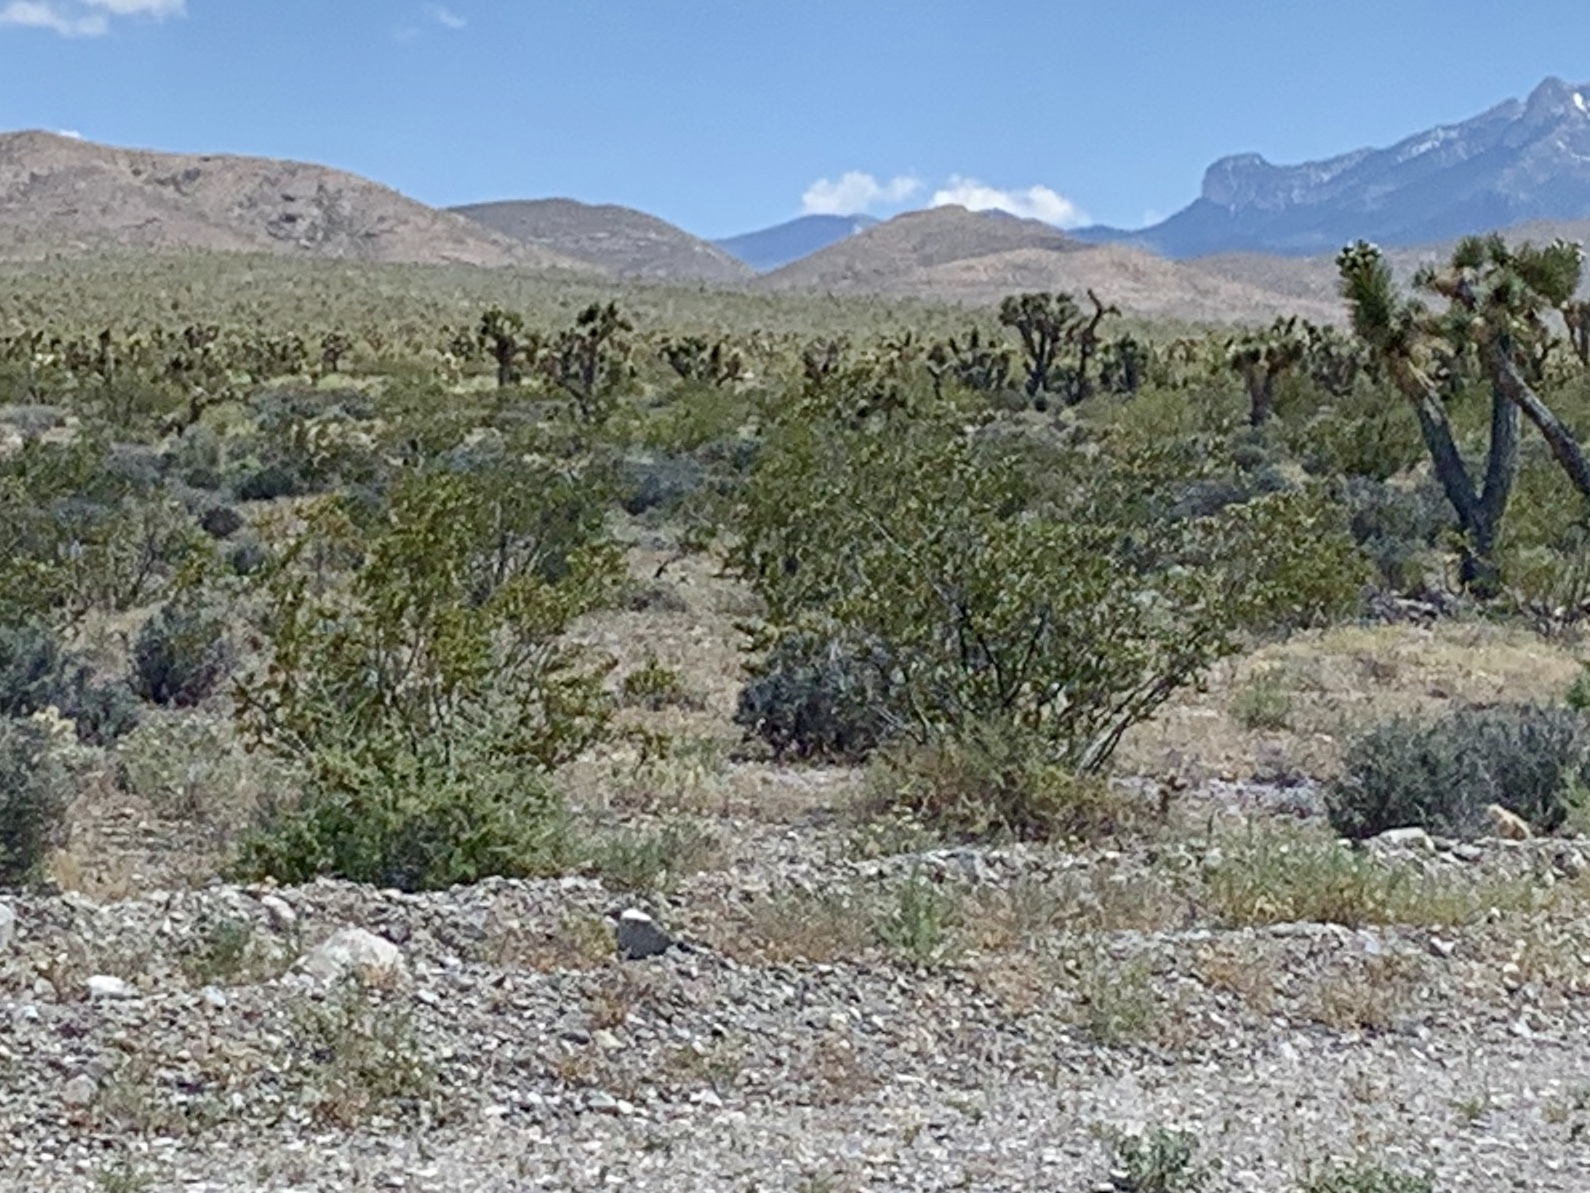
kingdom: Plantae
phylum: Tracheophyta
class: Magnoliopsida
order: Zygophyllales
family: Zygophyllaceae
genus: Larrea
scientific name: Larrea tridentata
